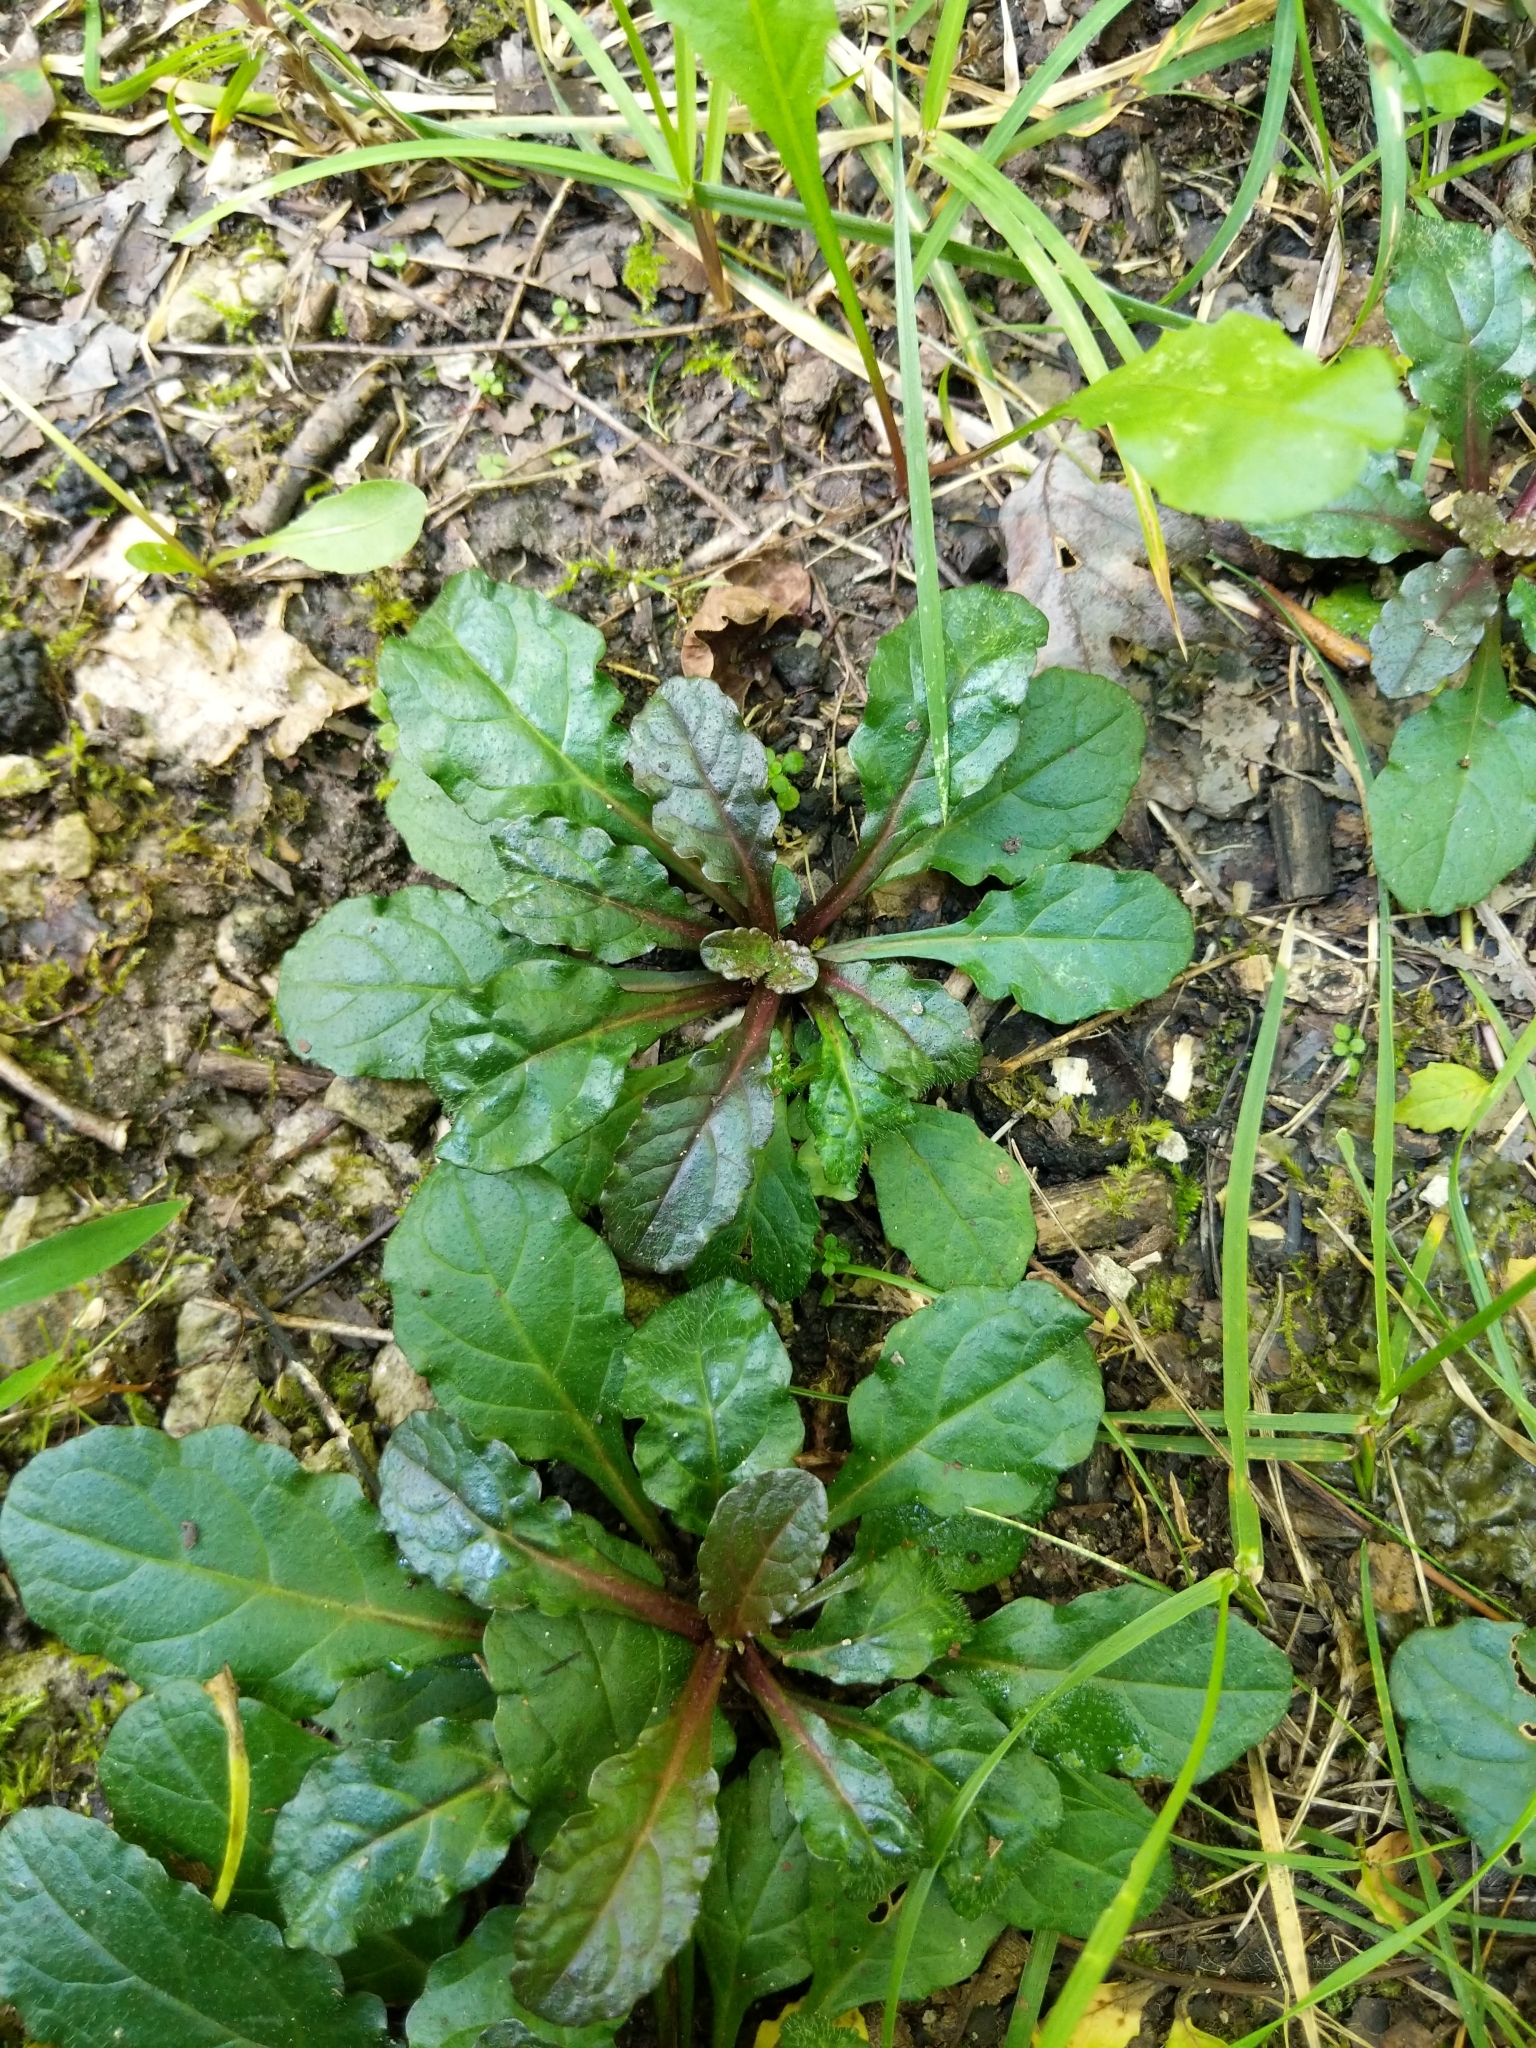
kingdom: Plantae
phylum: Tracheophyta
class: Magnoliopsida
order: Lamiales
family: Lamiaceae
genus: Ajuga
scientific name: Ajuga reptans
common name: Bugle
